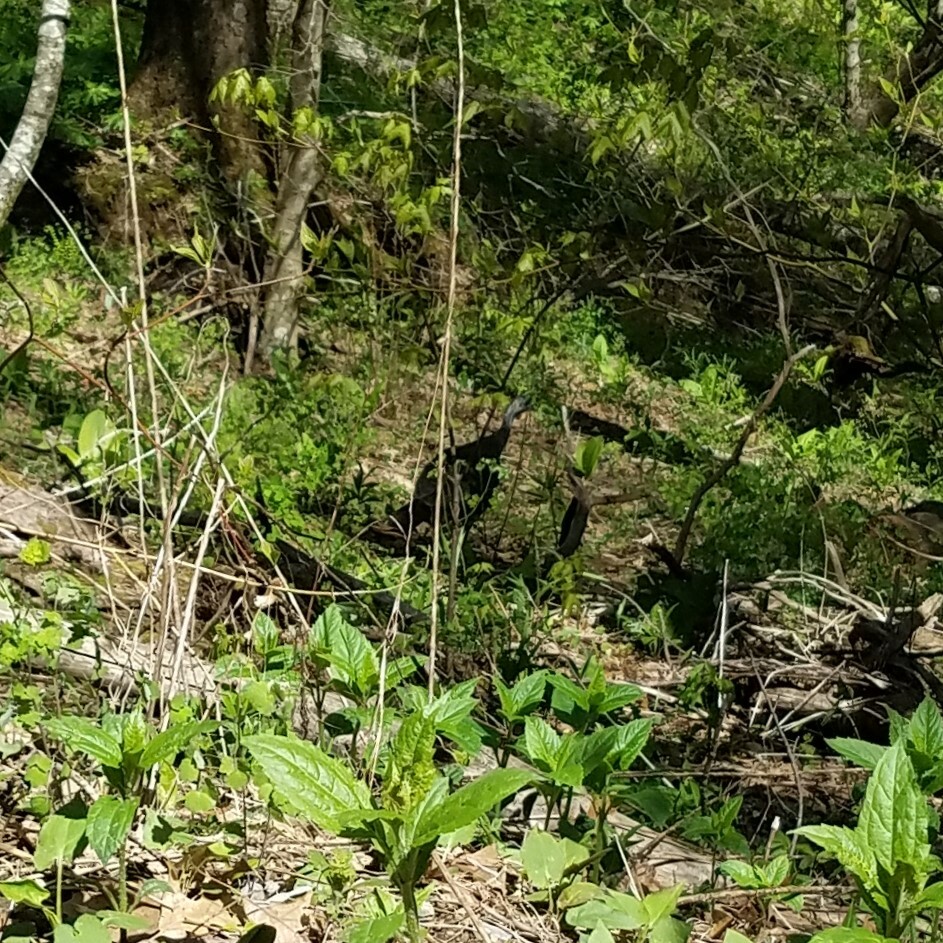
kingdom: Animalia
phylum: Chordata
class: Aves
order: Galliformes
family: Phasianidae
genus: Meleagris
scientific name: Meleagris gallopavo
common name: Wild turkey
